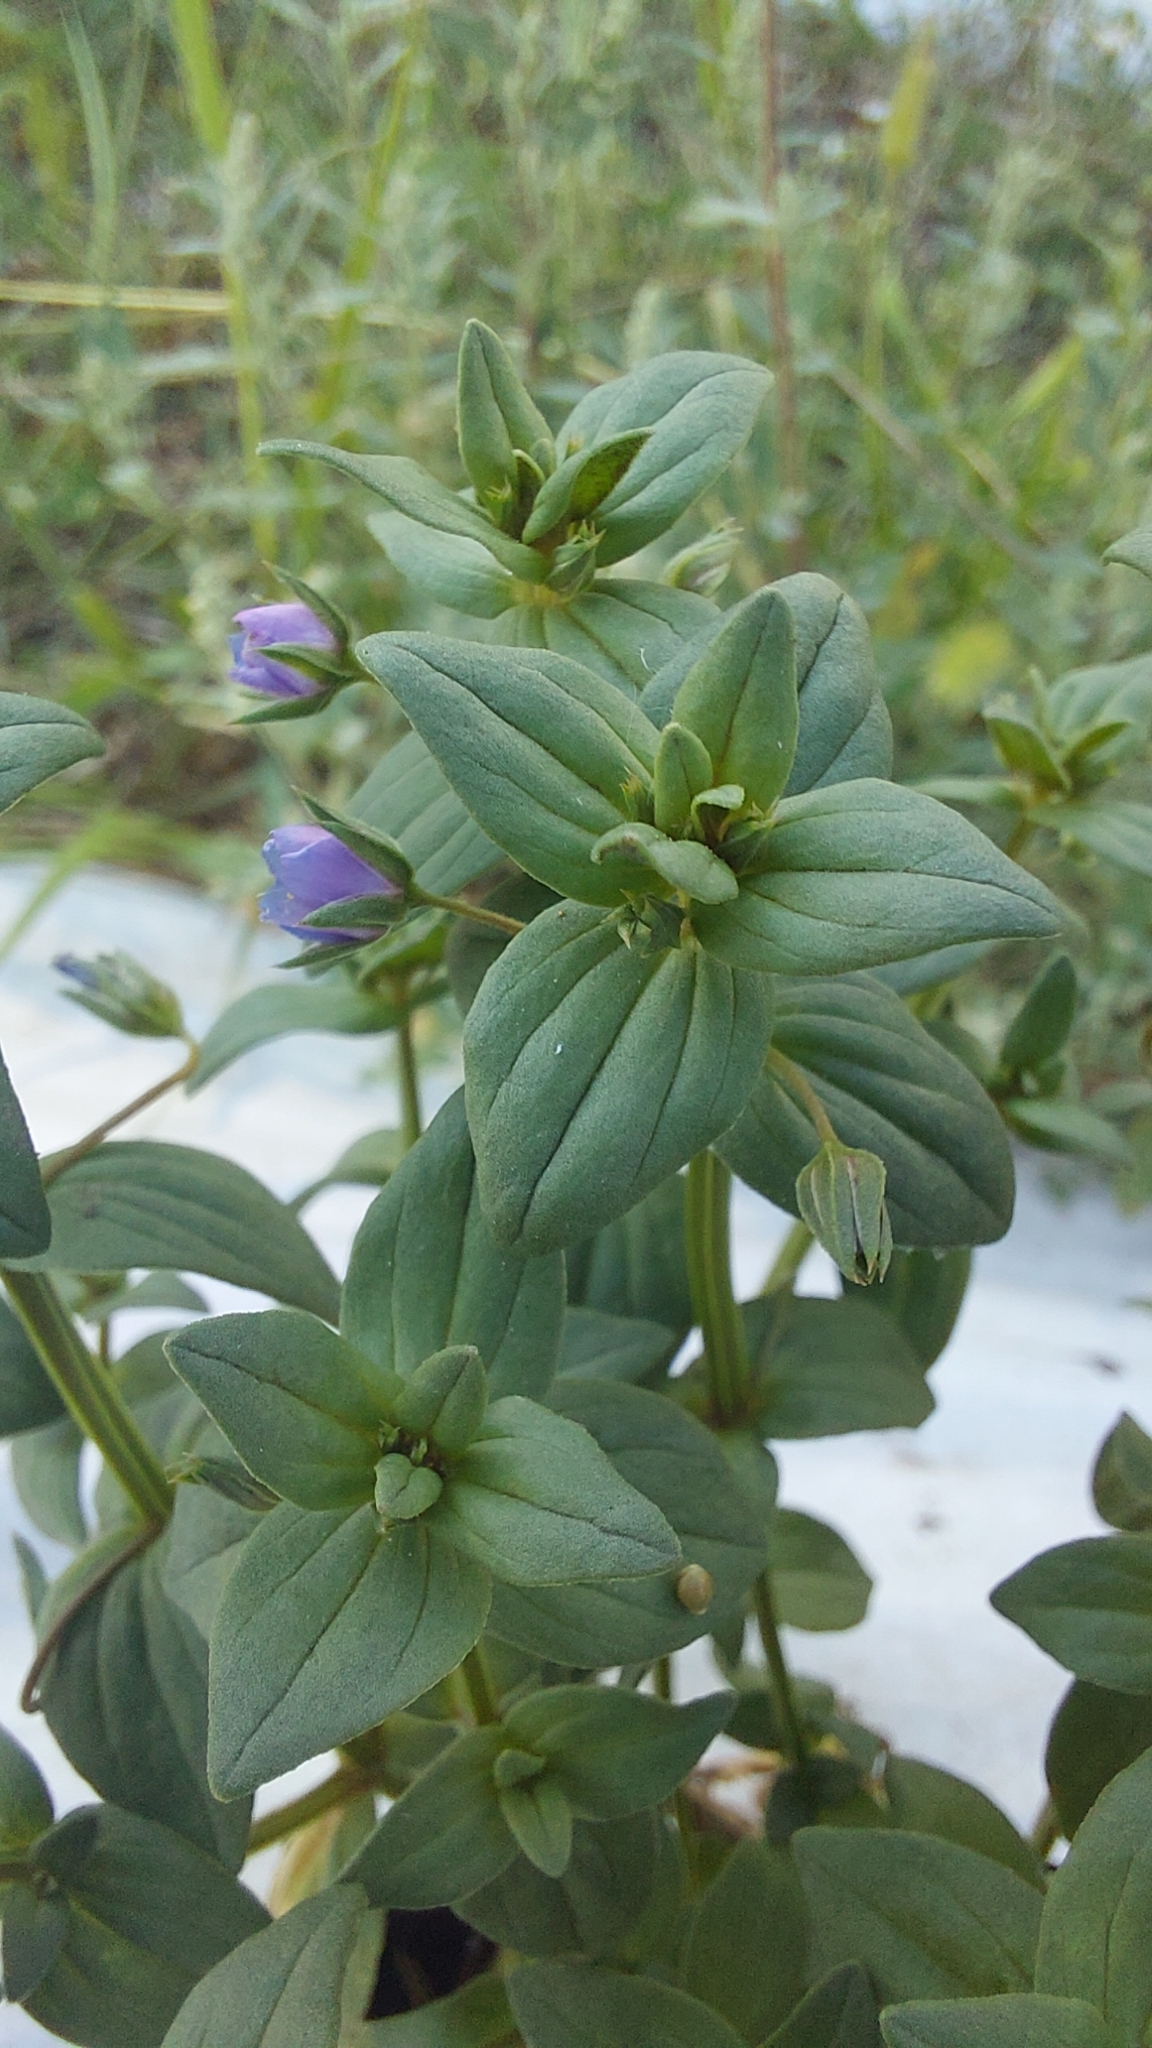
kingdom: Plantae
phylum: Tracheophyta
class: Magnoliopsida
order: Ericales
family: Primulaceae
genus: Lysimachia
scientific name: Lysimachia foemina
